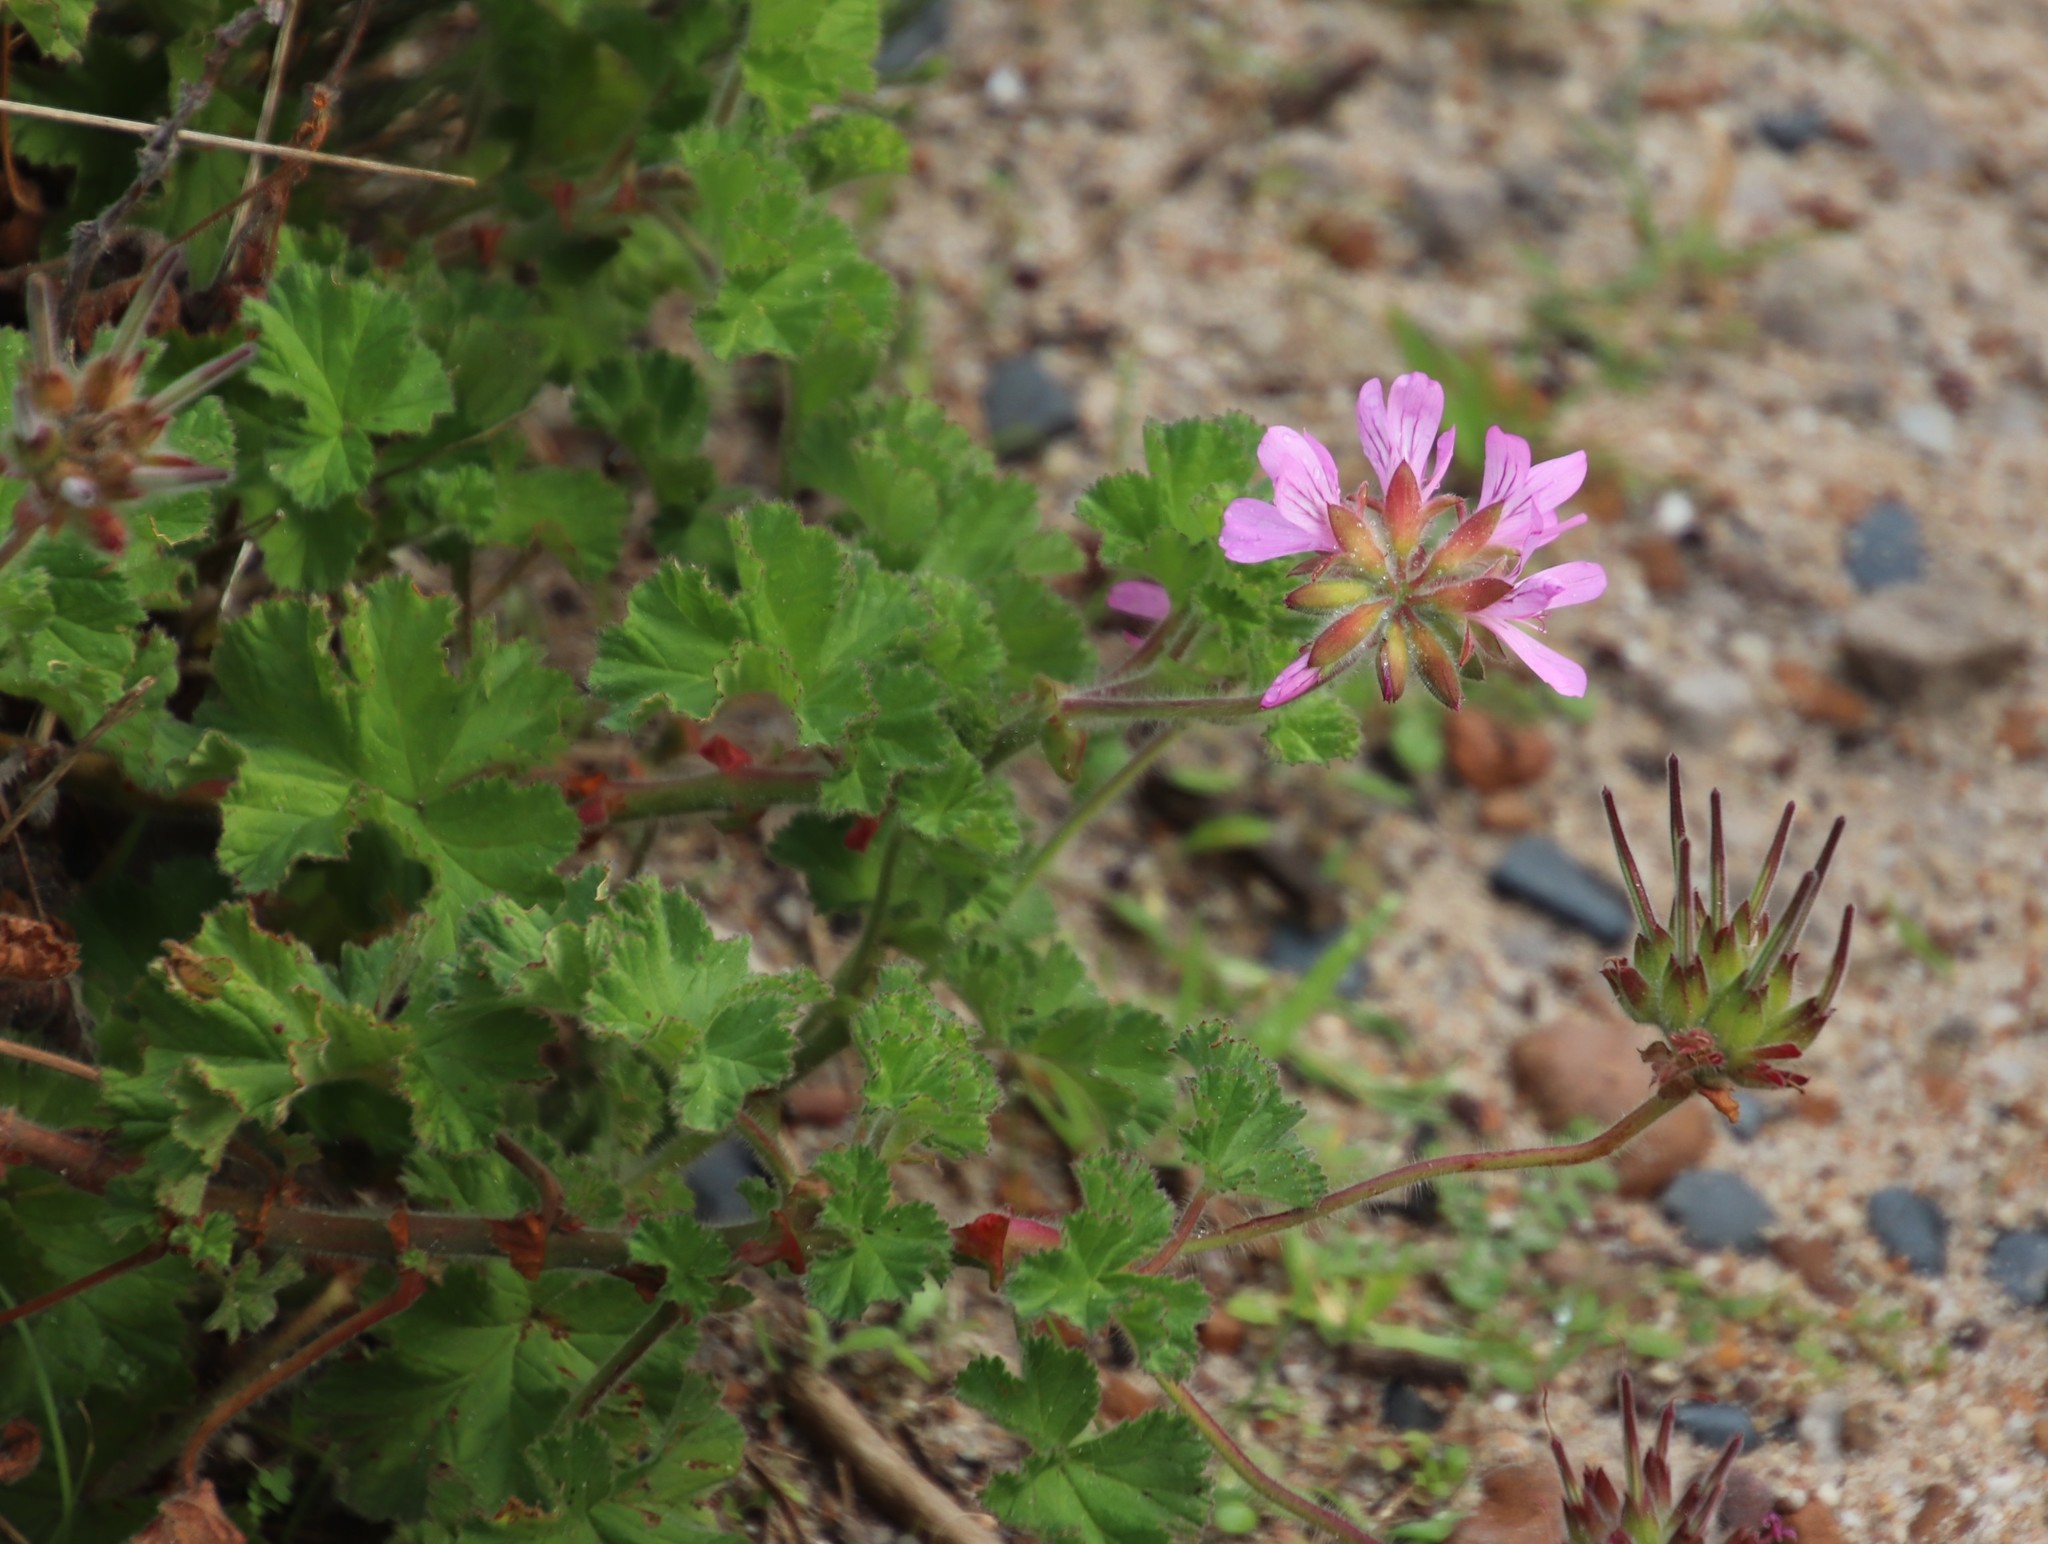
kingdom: Plantae
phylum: Tracheophyta
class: Magnoliopsida
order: Geraniales
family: Geraniaceae
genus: Pelargonium
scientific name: Pelargonium capitatum
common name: Rose scented geranium
